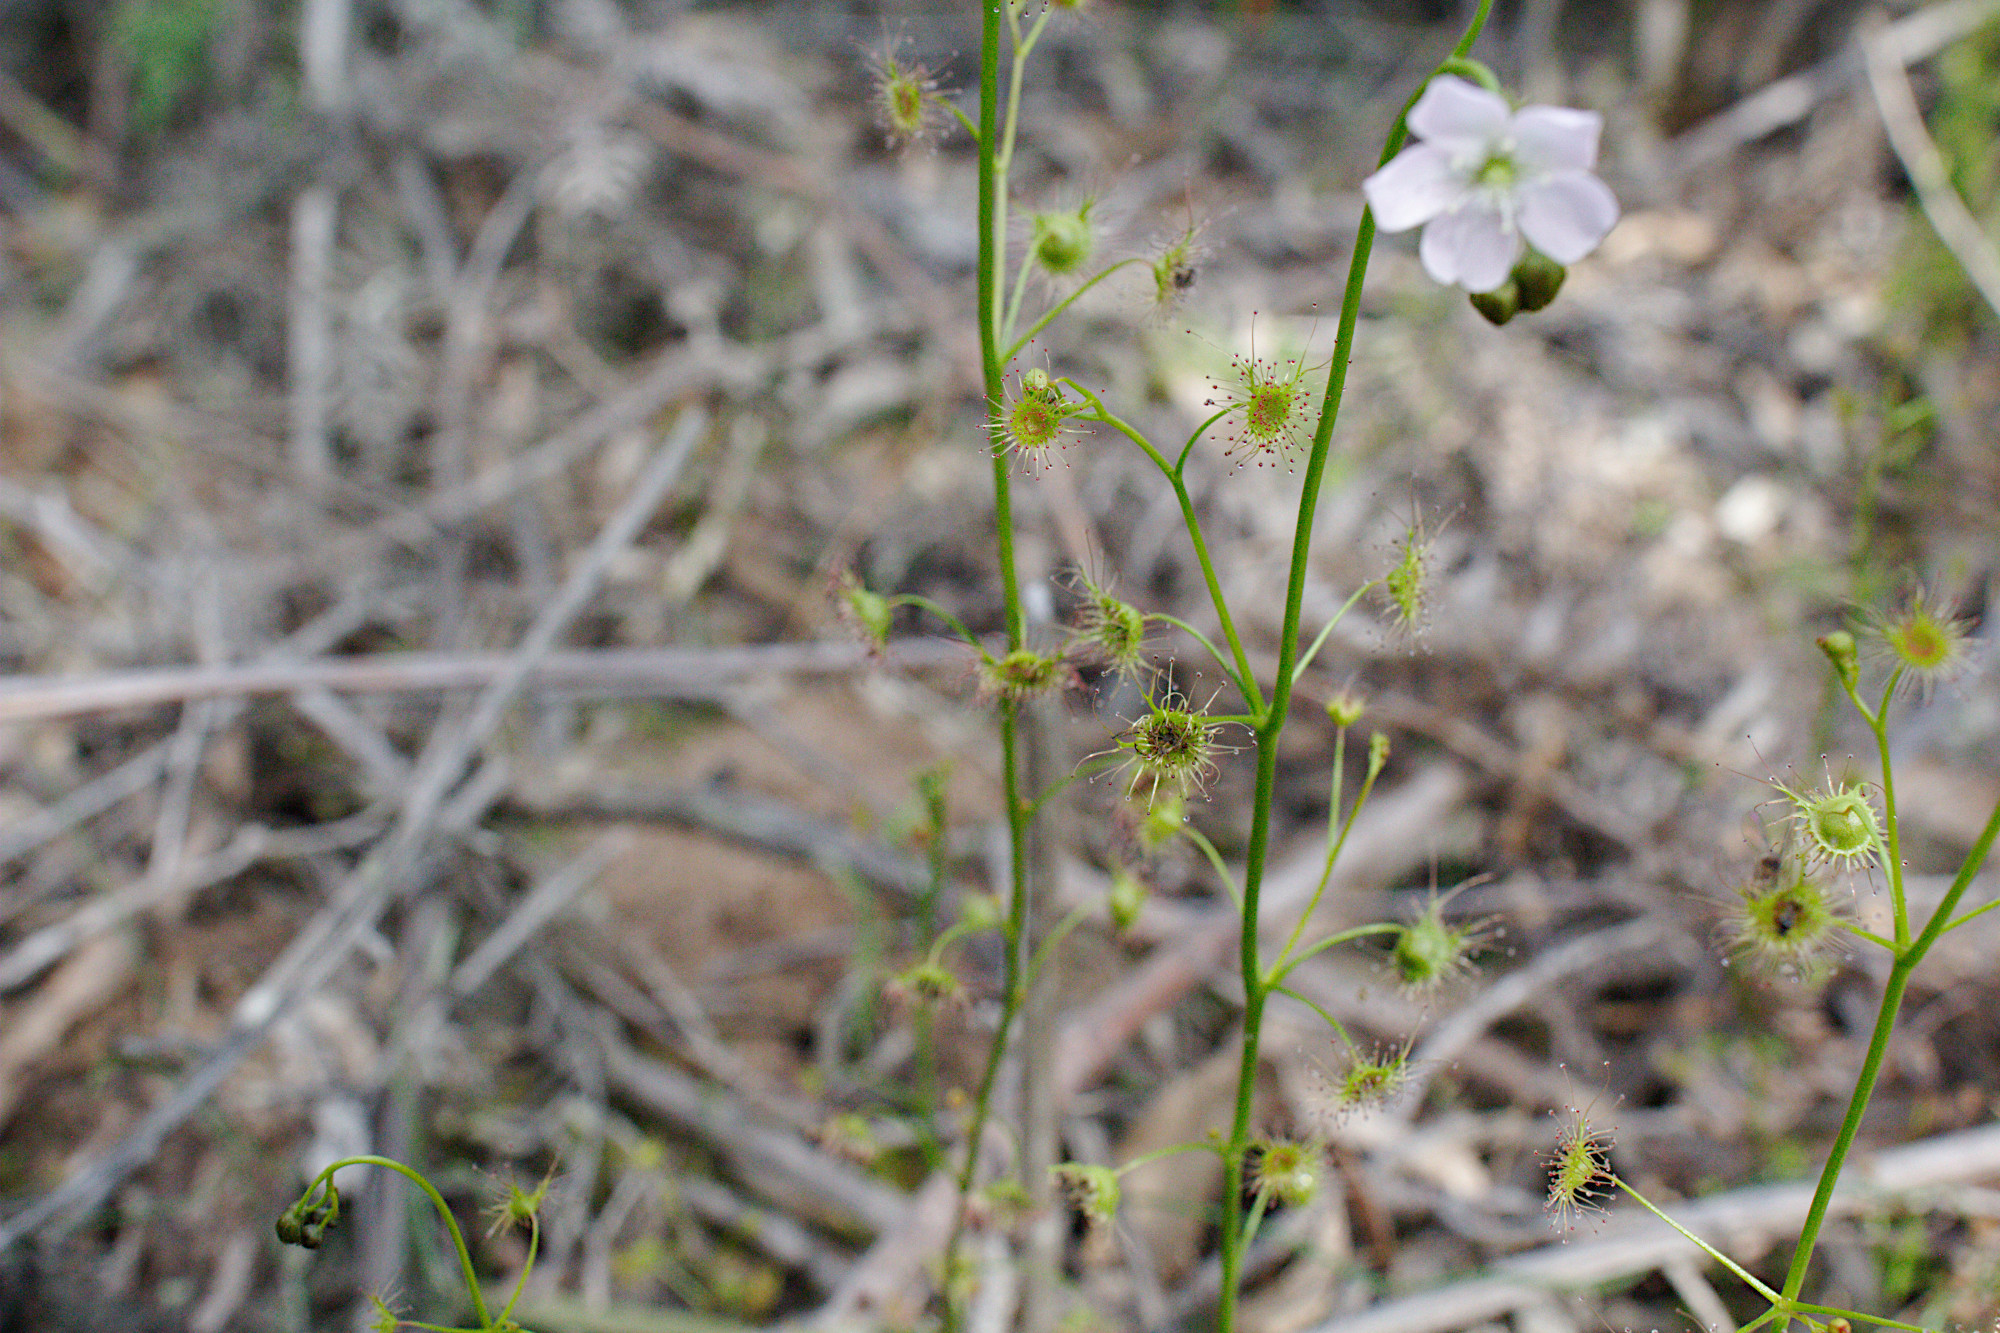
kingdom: Plantae
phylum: Tracheophyta
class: Magnoliopsida
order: Caryophyllales
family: Droseraceae
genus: Drosera
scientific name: Drosera peltata
